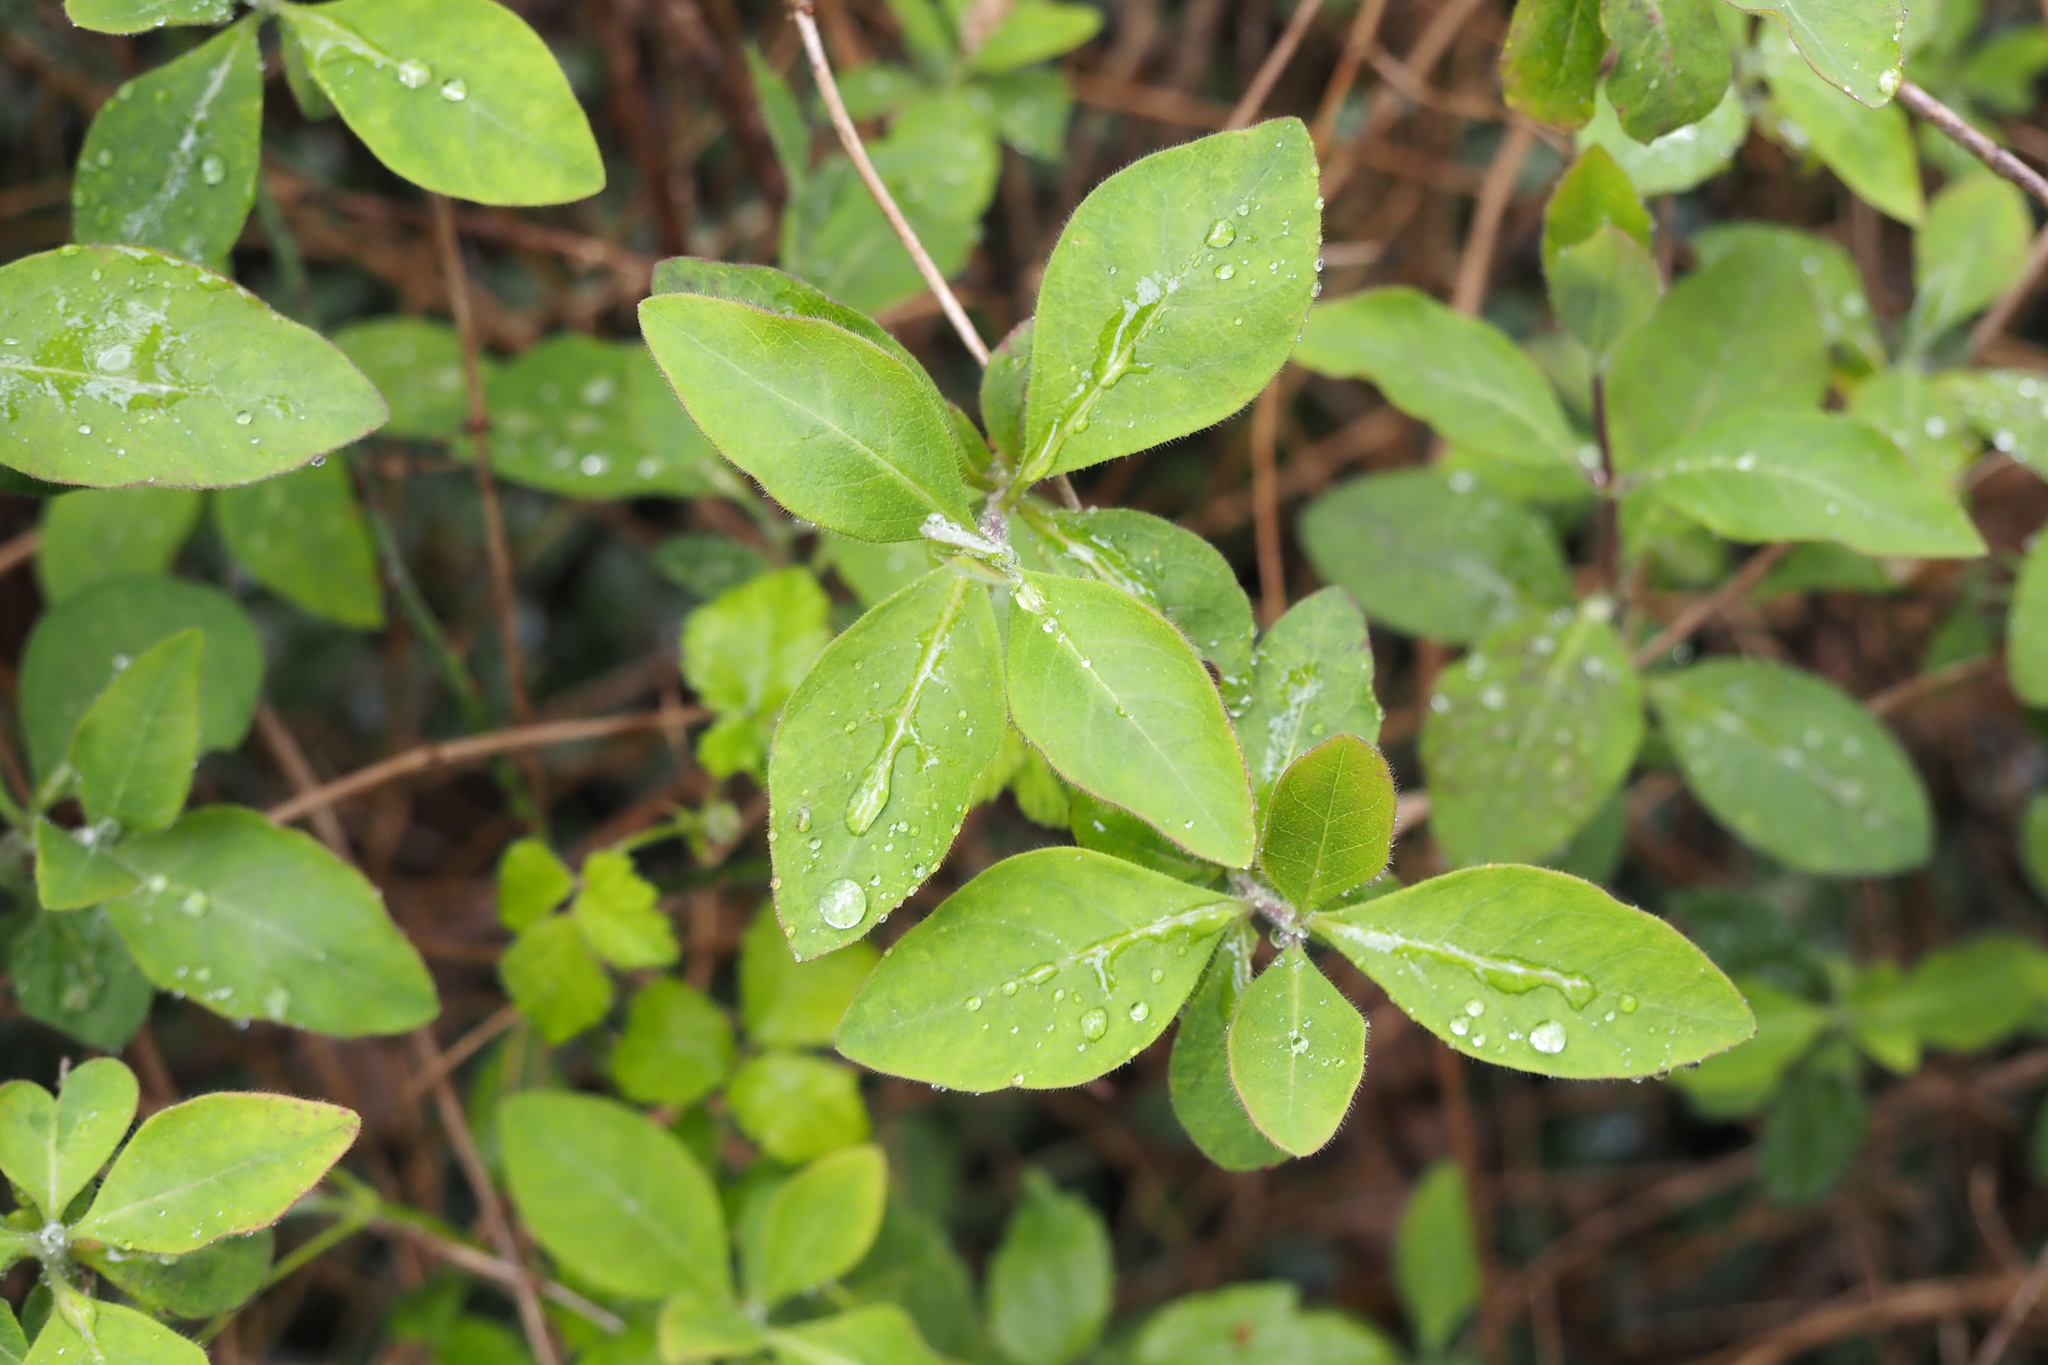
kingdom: Plantae
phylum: Tracheophyta
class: Magnoliopsida
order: Dipsacales
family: Caprifoliaceae
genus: Lonicera
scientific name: Lonicera periclymenum
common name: European honeysuckle
